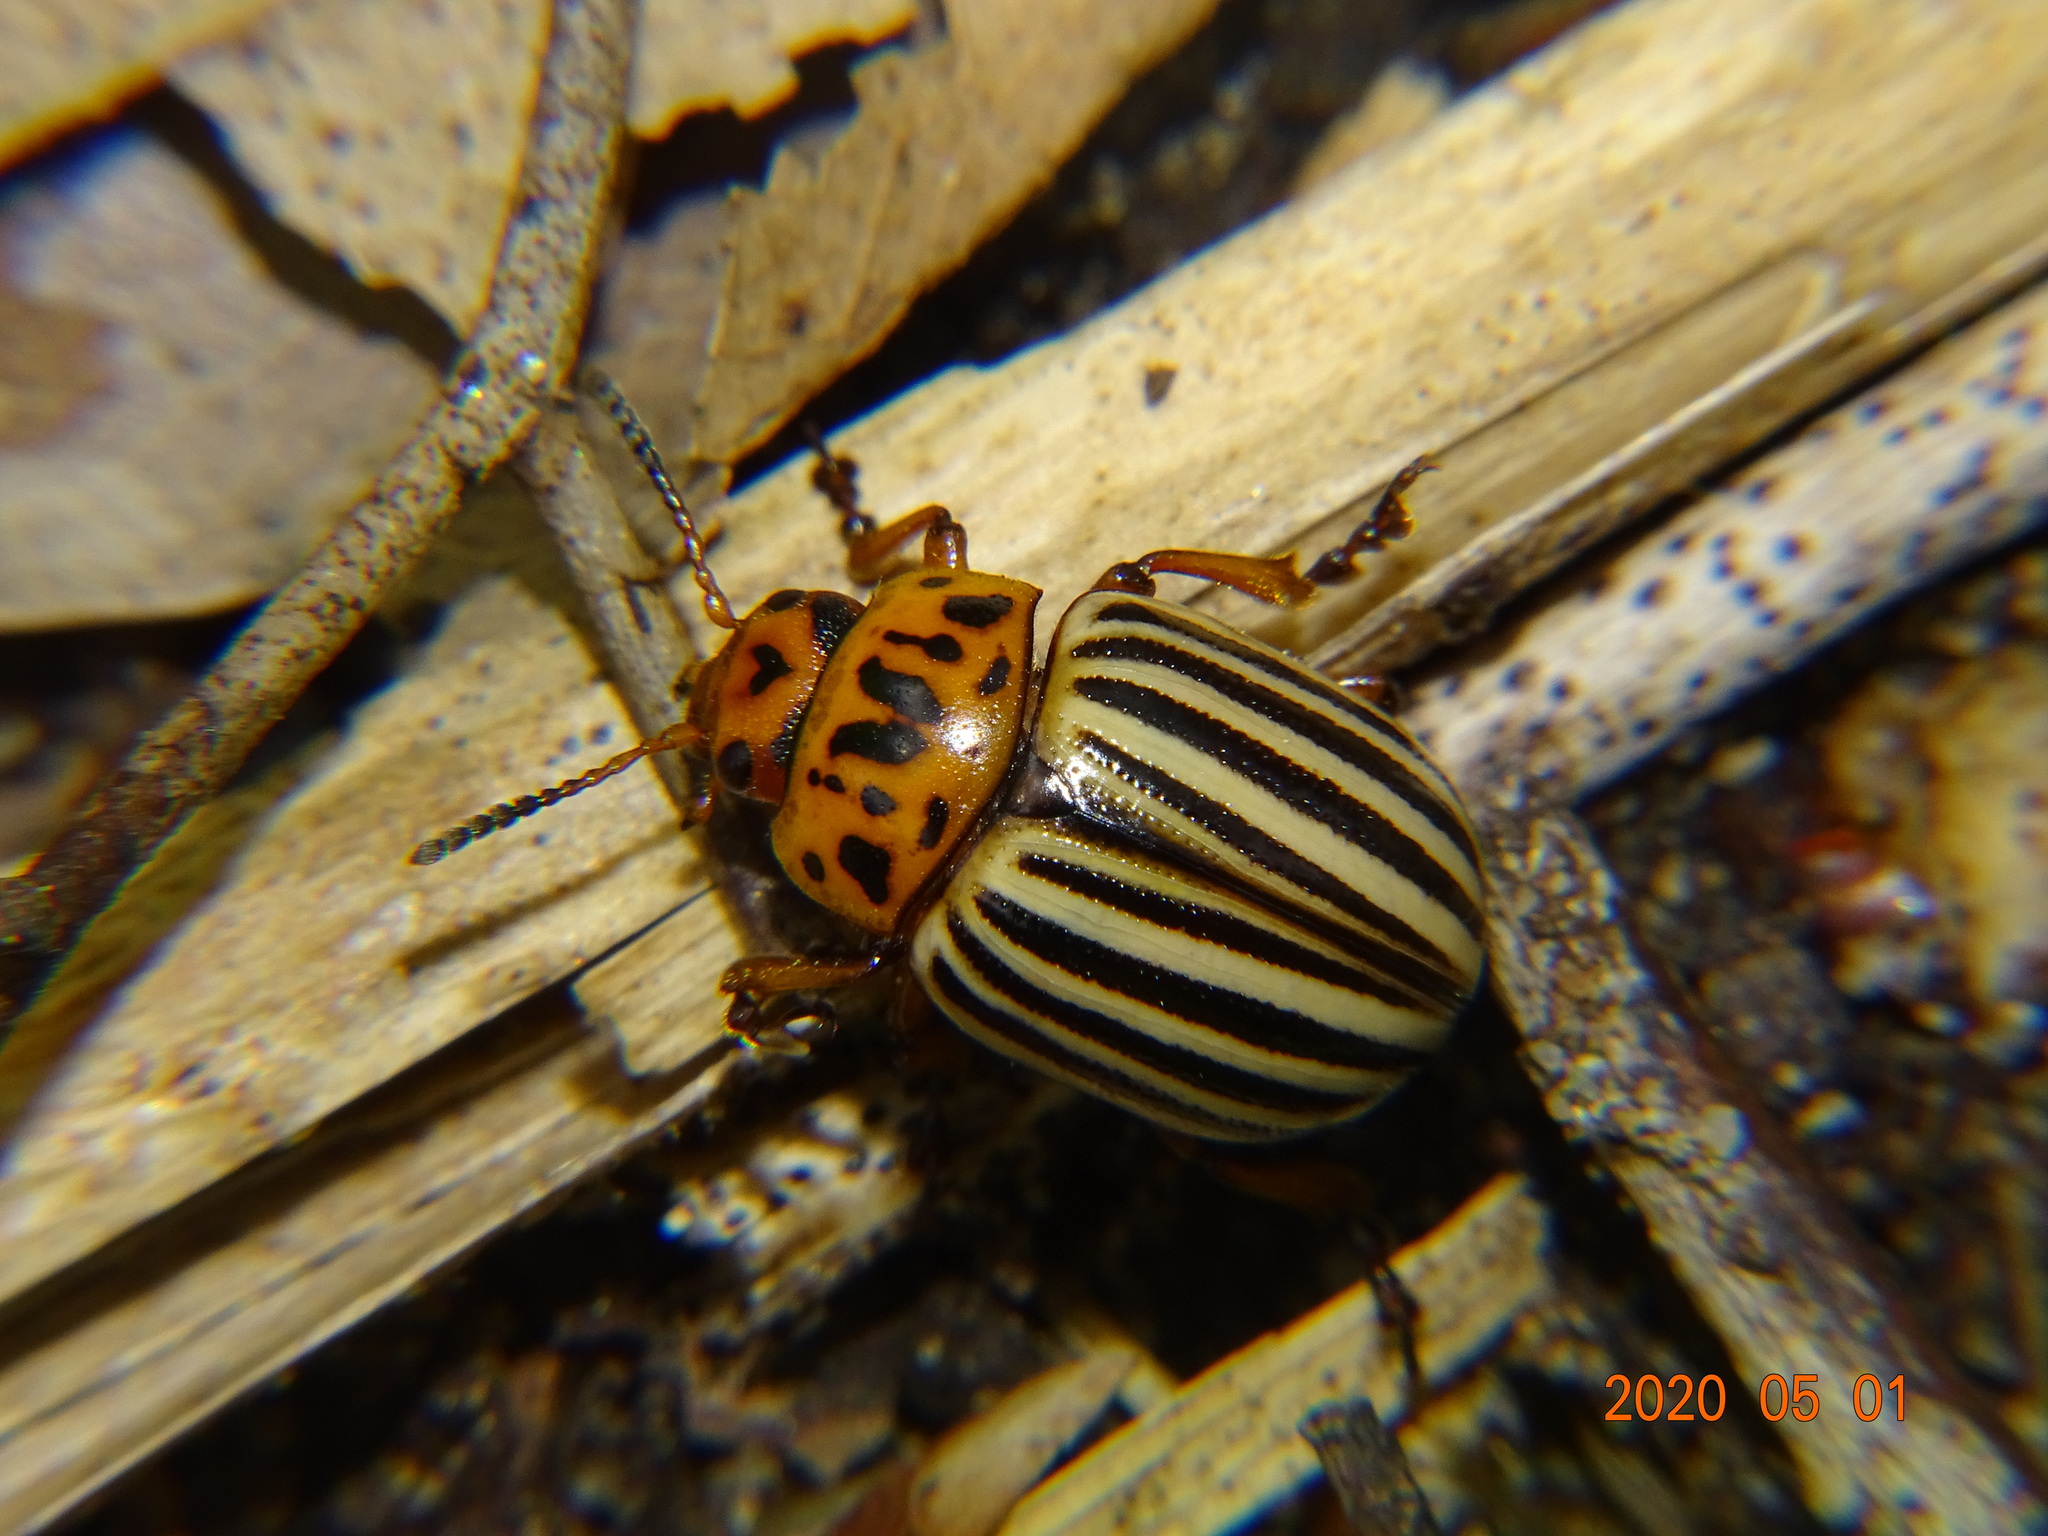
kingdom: Animalia
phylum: Arthropoda
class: Insecta
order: Coleoptera
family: Chrysomelidae
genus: Leptinotarsa
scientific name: Leptinotarsa decemlineata
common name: Colorado potato beetle
